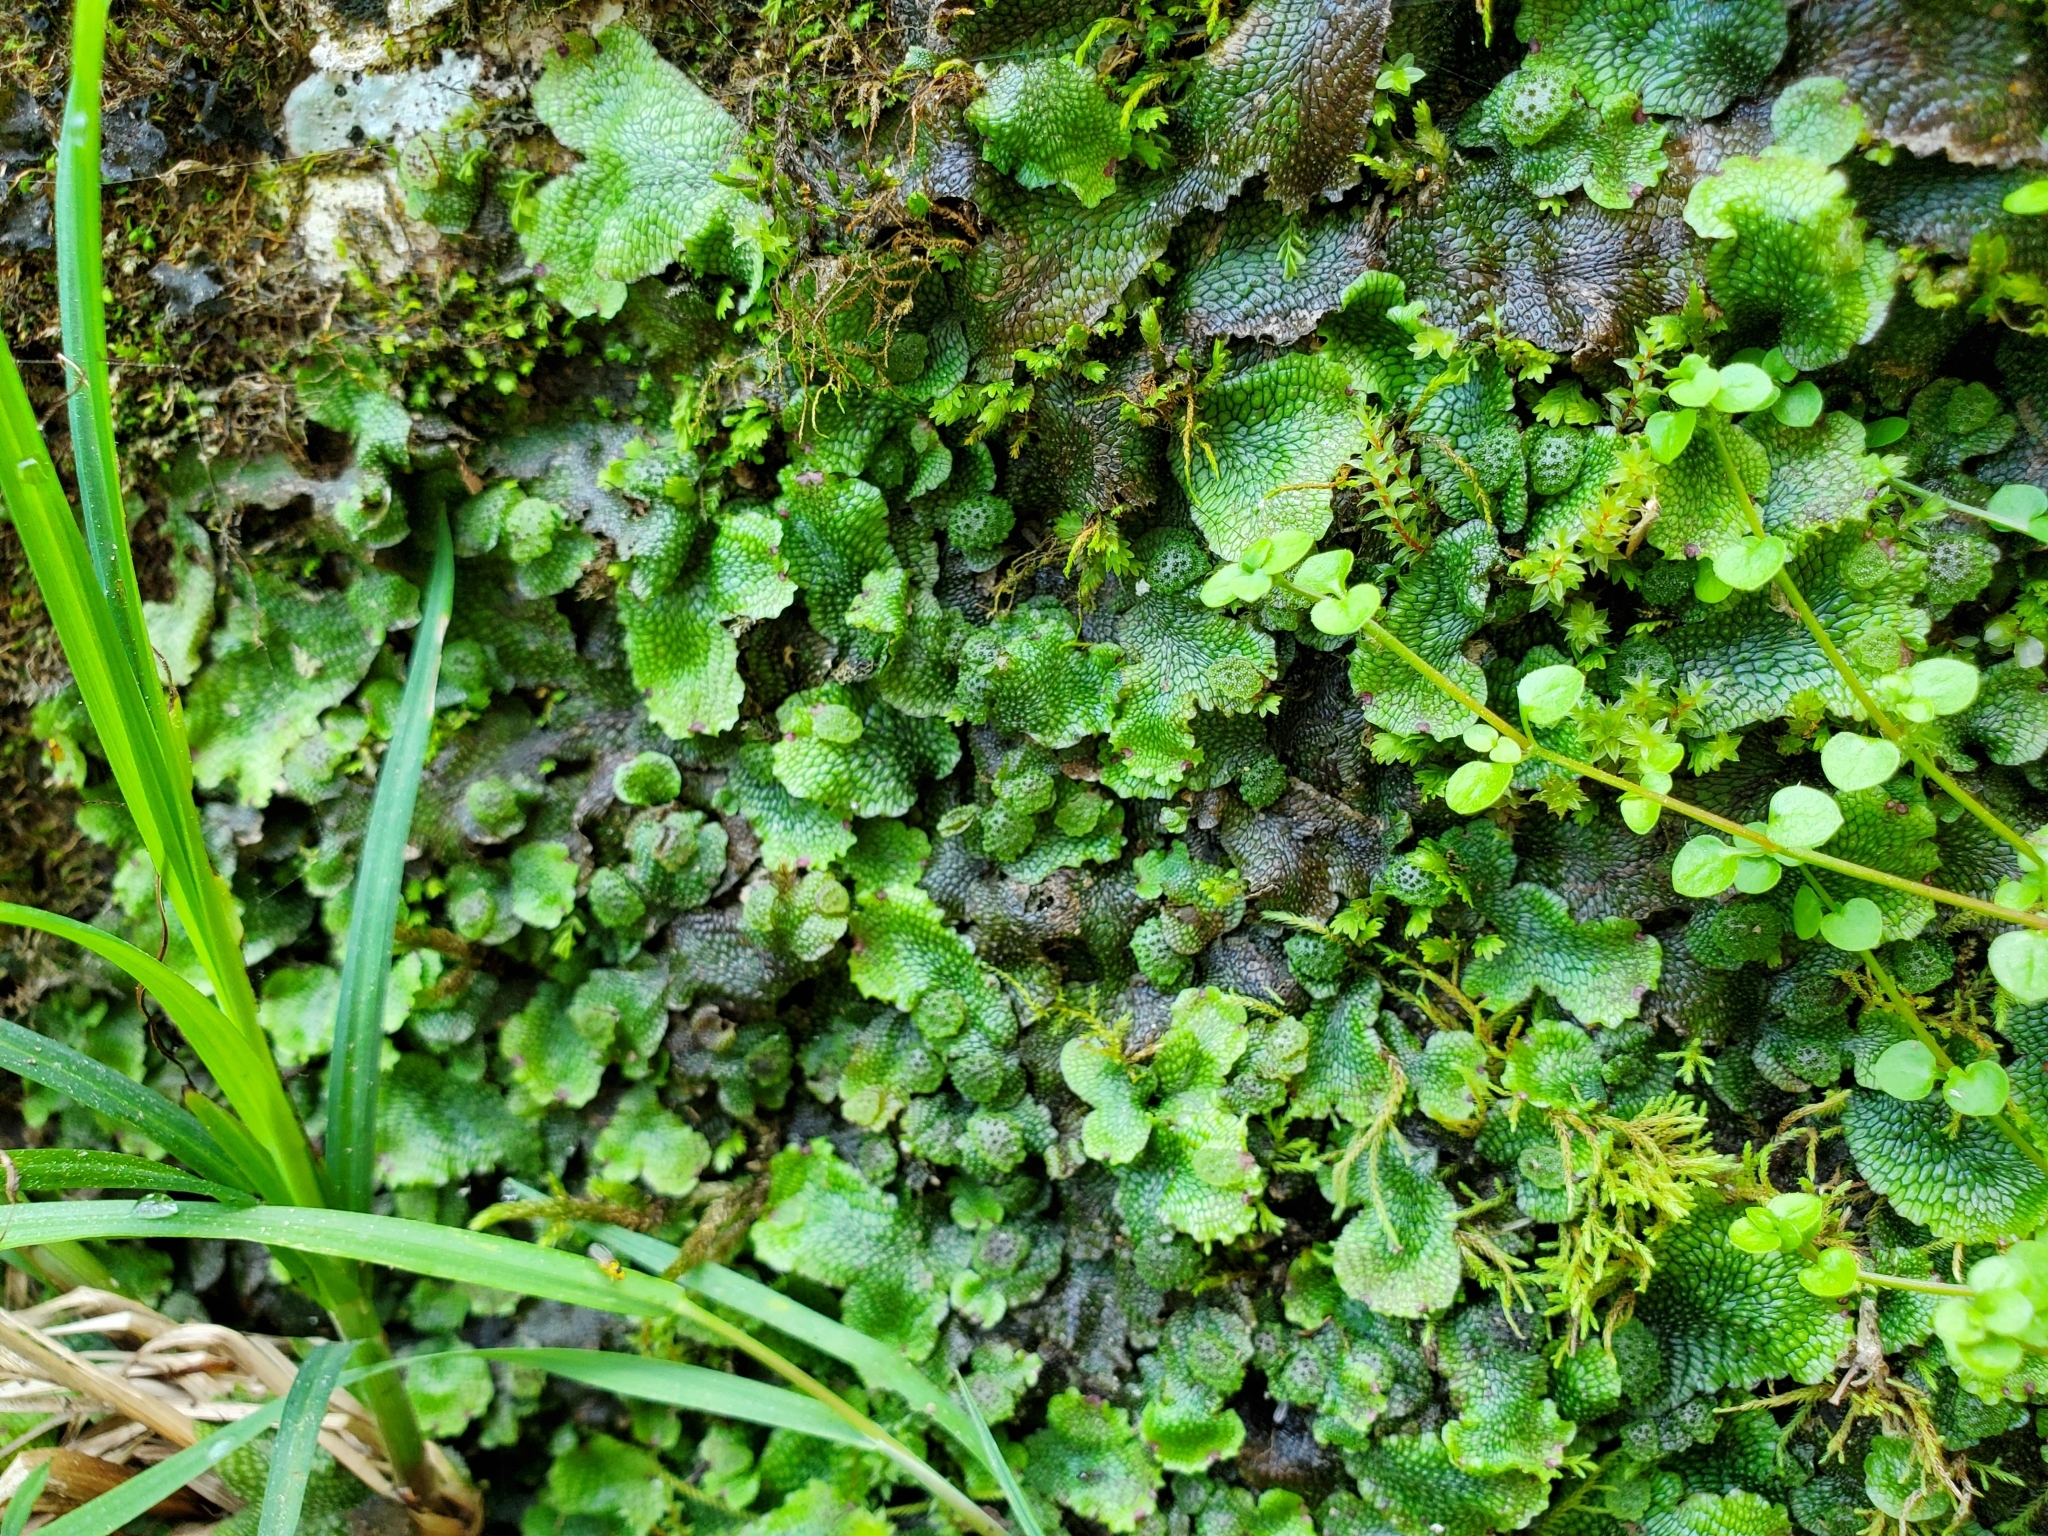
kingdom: Plantae
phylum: Marchantiophyta
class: Marchantiopsida
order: Marchantiales
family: Conocephalaceae
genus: Conocephalum
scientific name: Conocephalum salebrosum
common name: Cat-tongue liverwort
